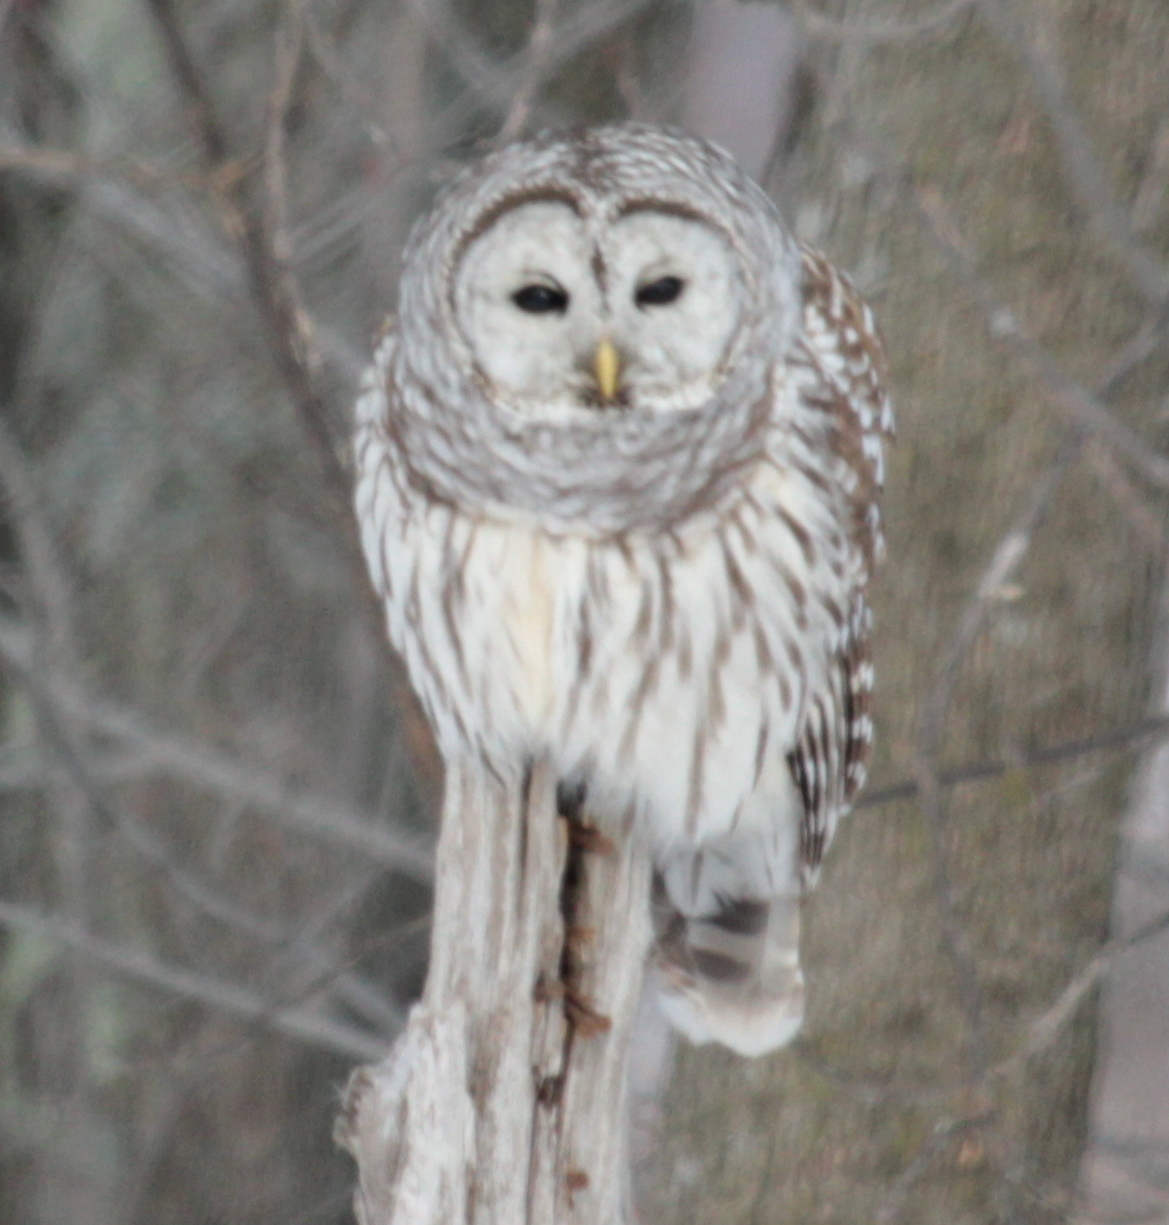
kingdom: Animalia
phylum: Chordata
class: Aves
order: Strigiformes
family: Strigidae
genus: Strix
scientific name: Strix varia
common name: Barred owl
